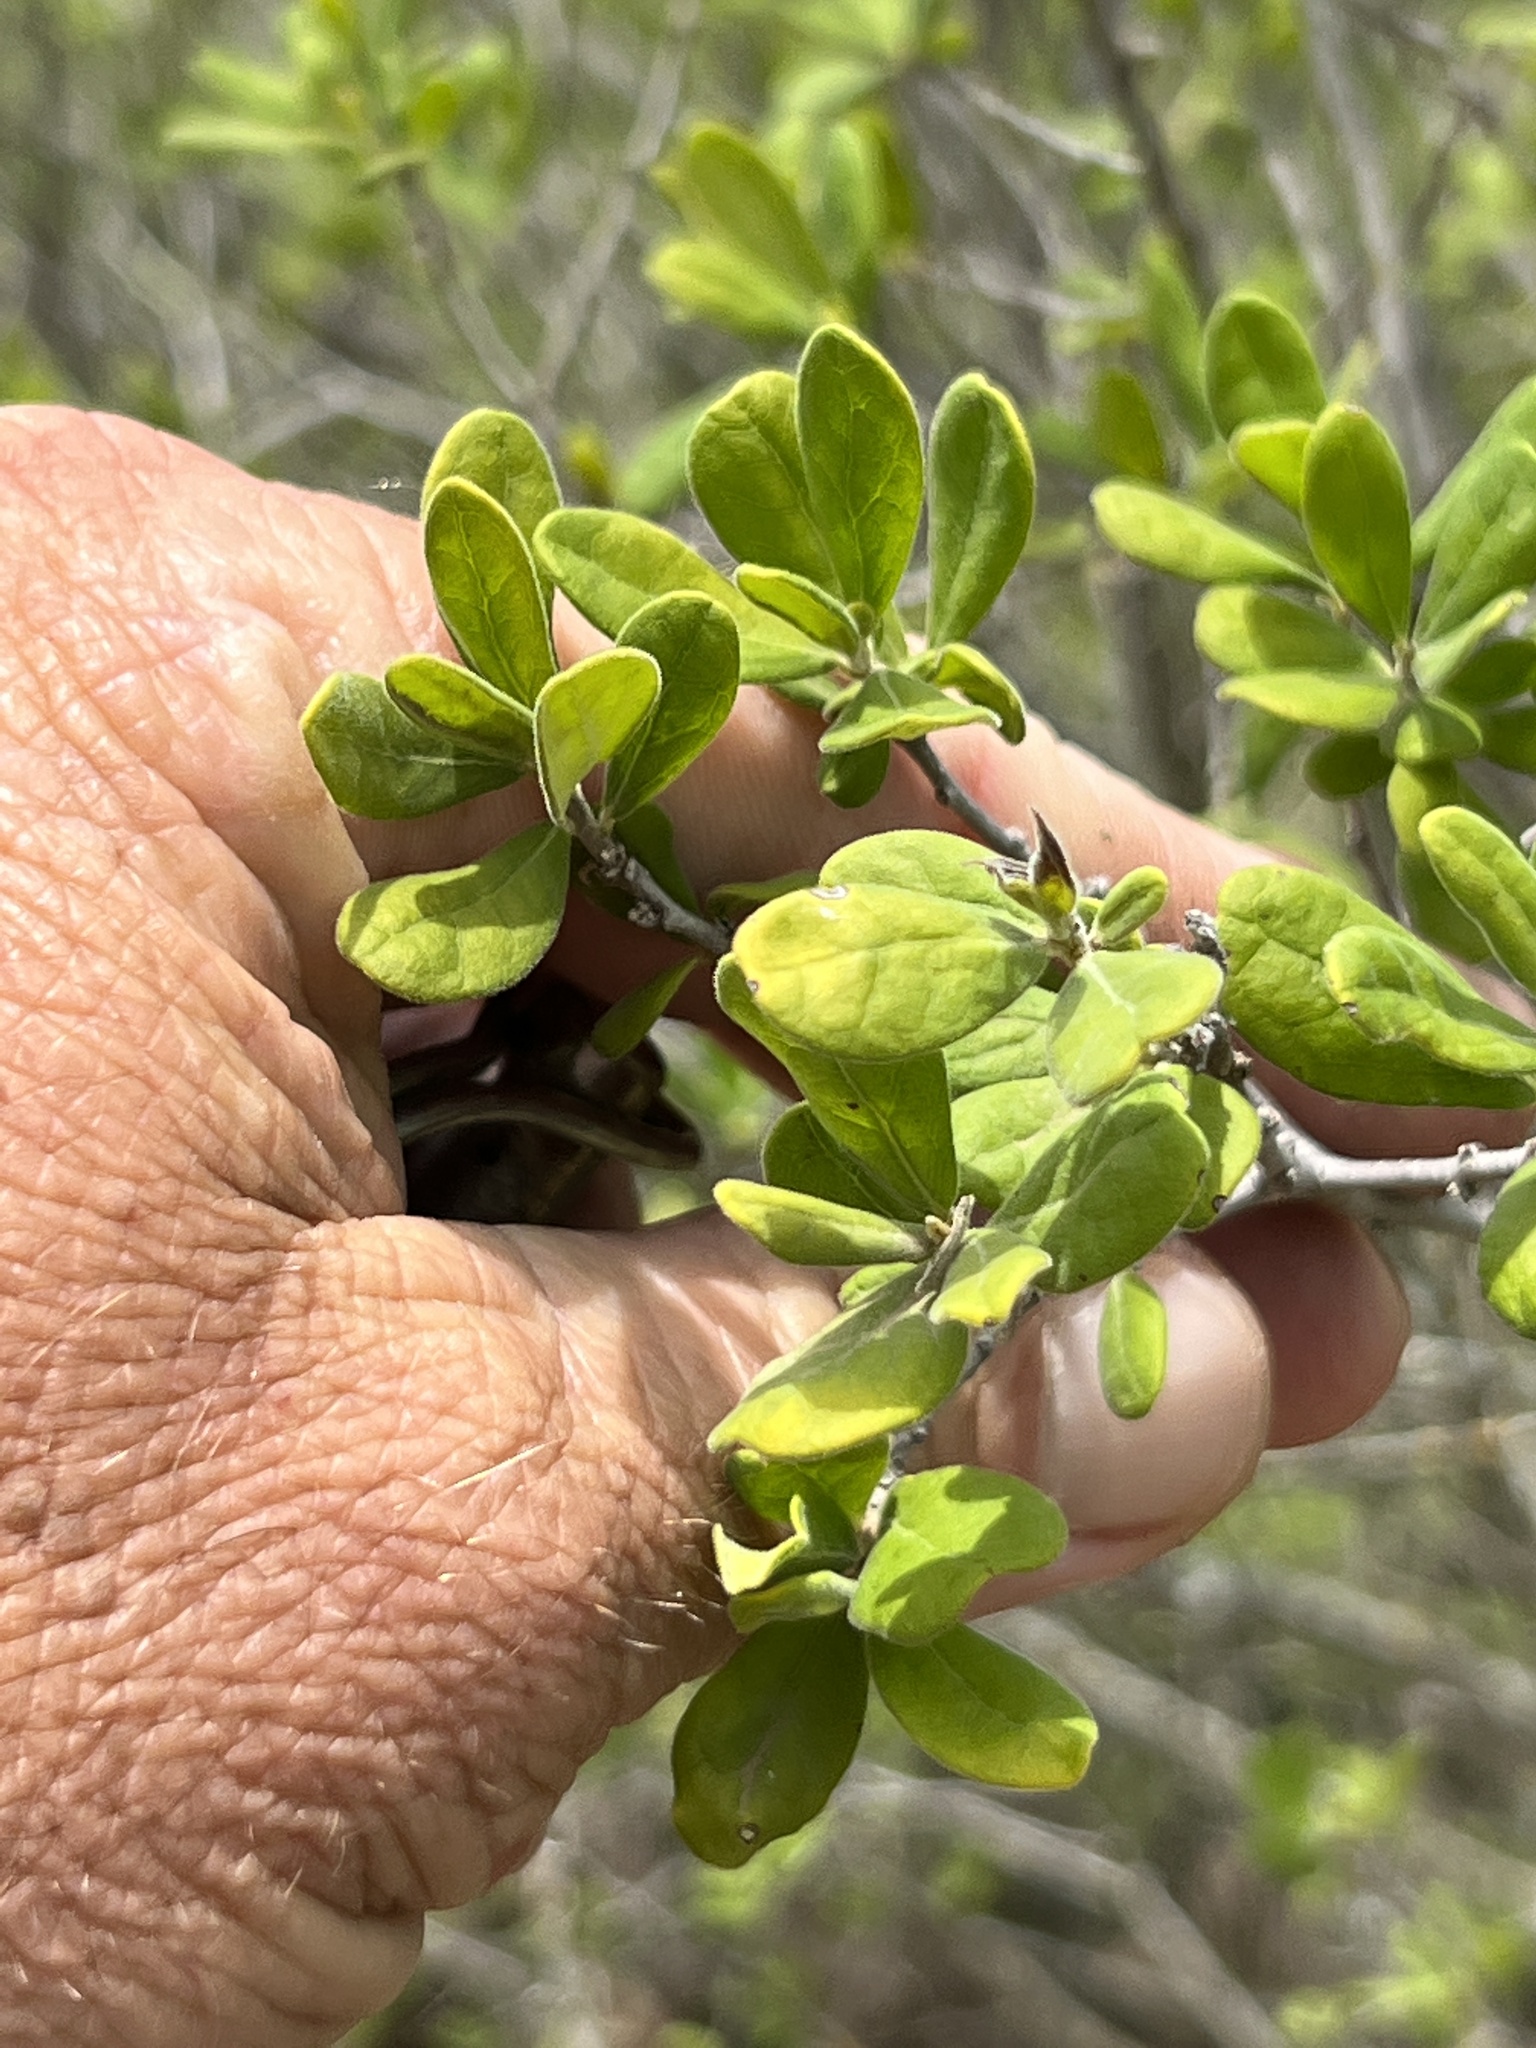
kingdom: Plantae
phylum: Tracheophyta
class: Magnoliopsida
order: Ericales
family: Ebenaceae
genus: Diospyros
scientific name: Diospyros texana
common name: Texas persimmon
